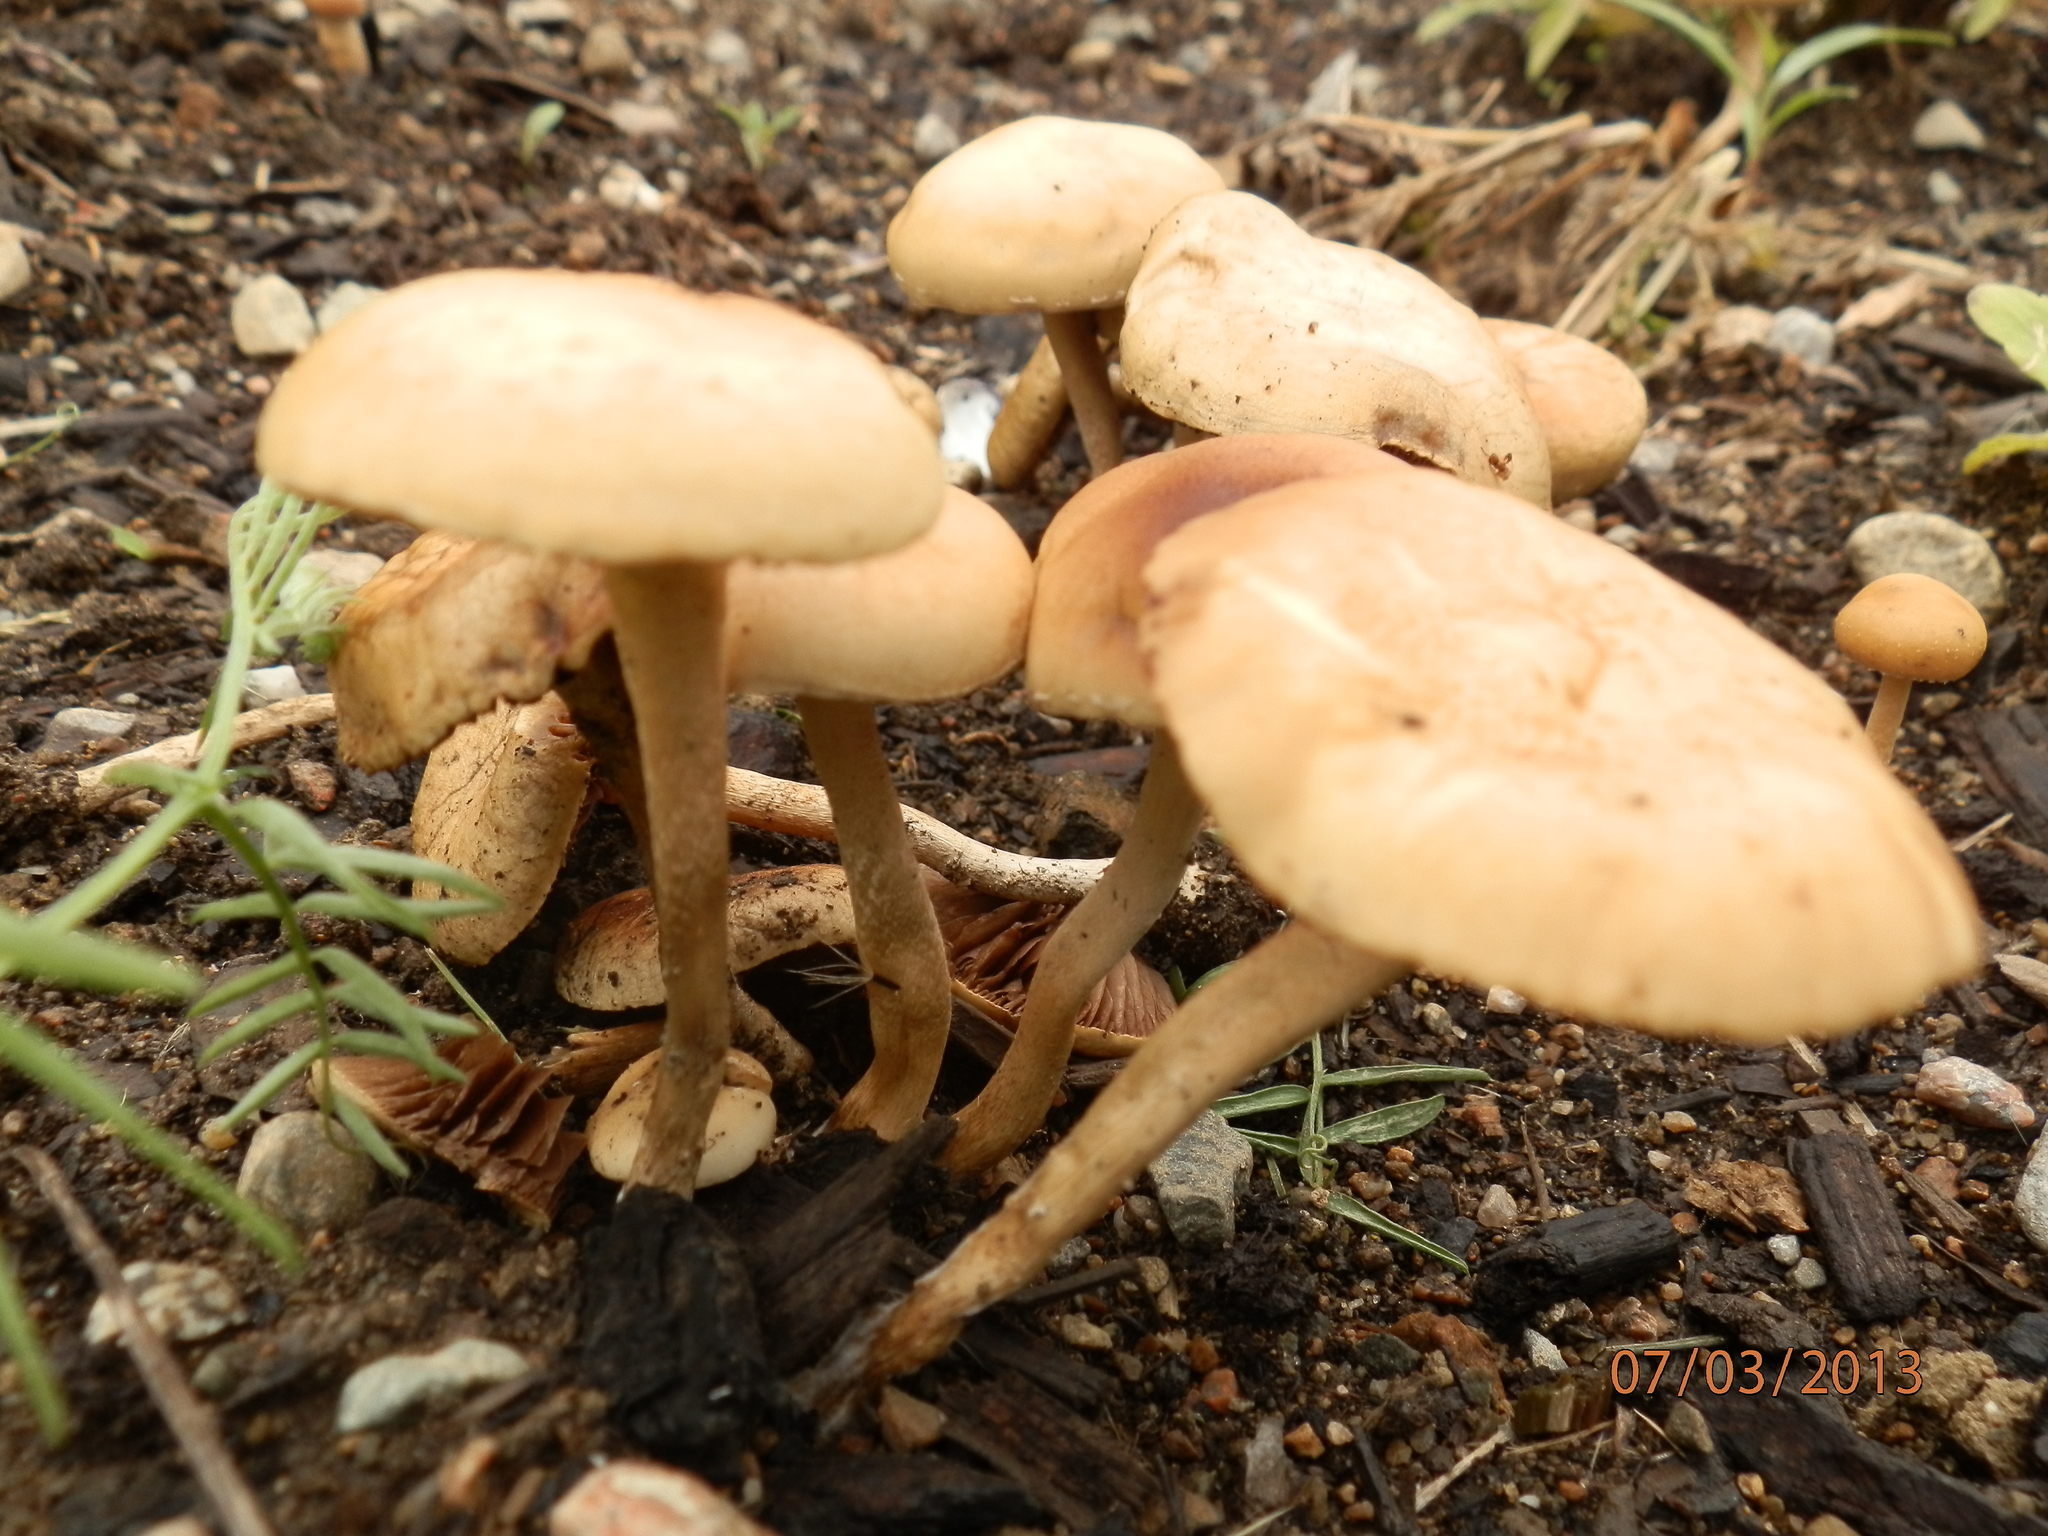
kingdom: Fungi
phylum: Basidiomycota
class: Agaricomycetes
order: Agaricales
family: Strophariaceae
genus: Agrocybe
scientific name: Agrocybe pediades
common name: Common fieldcap
